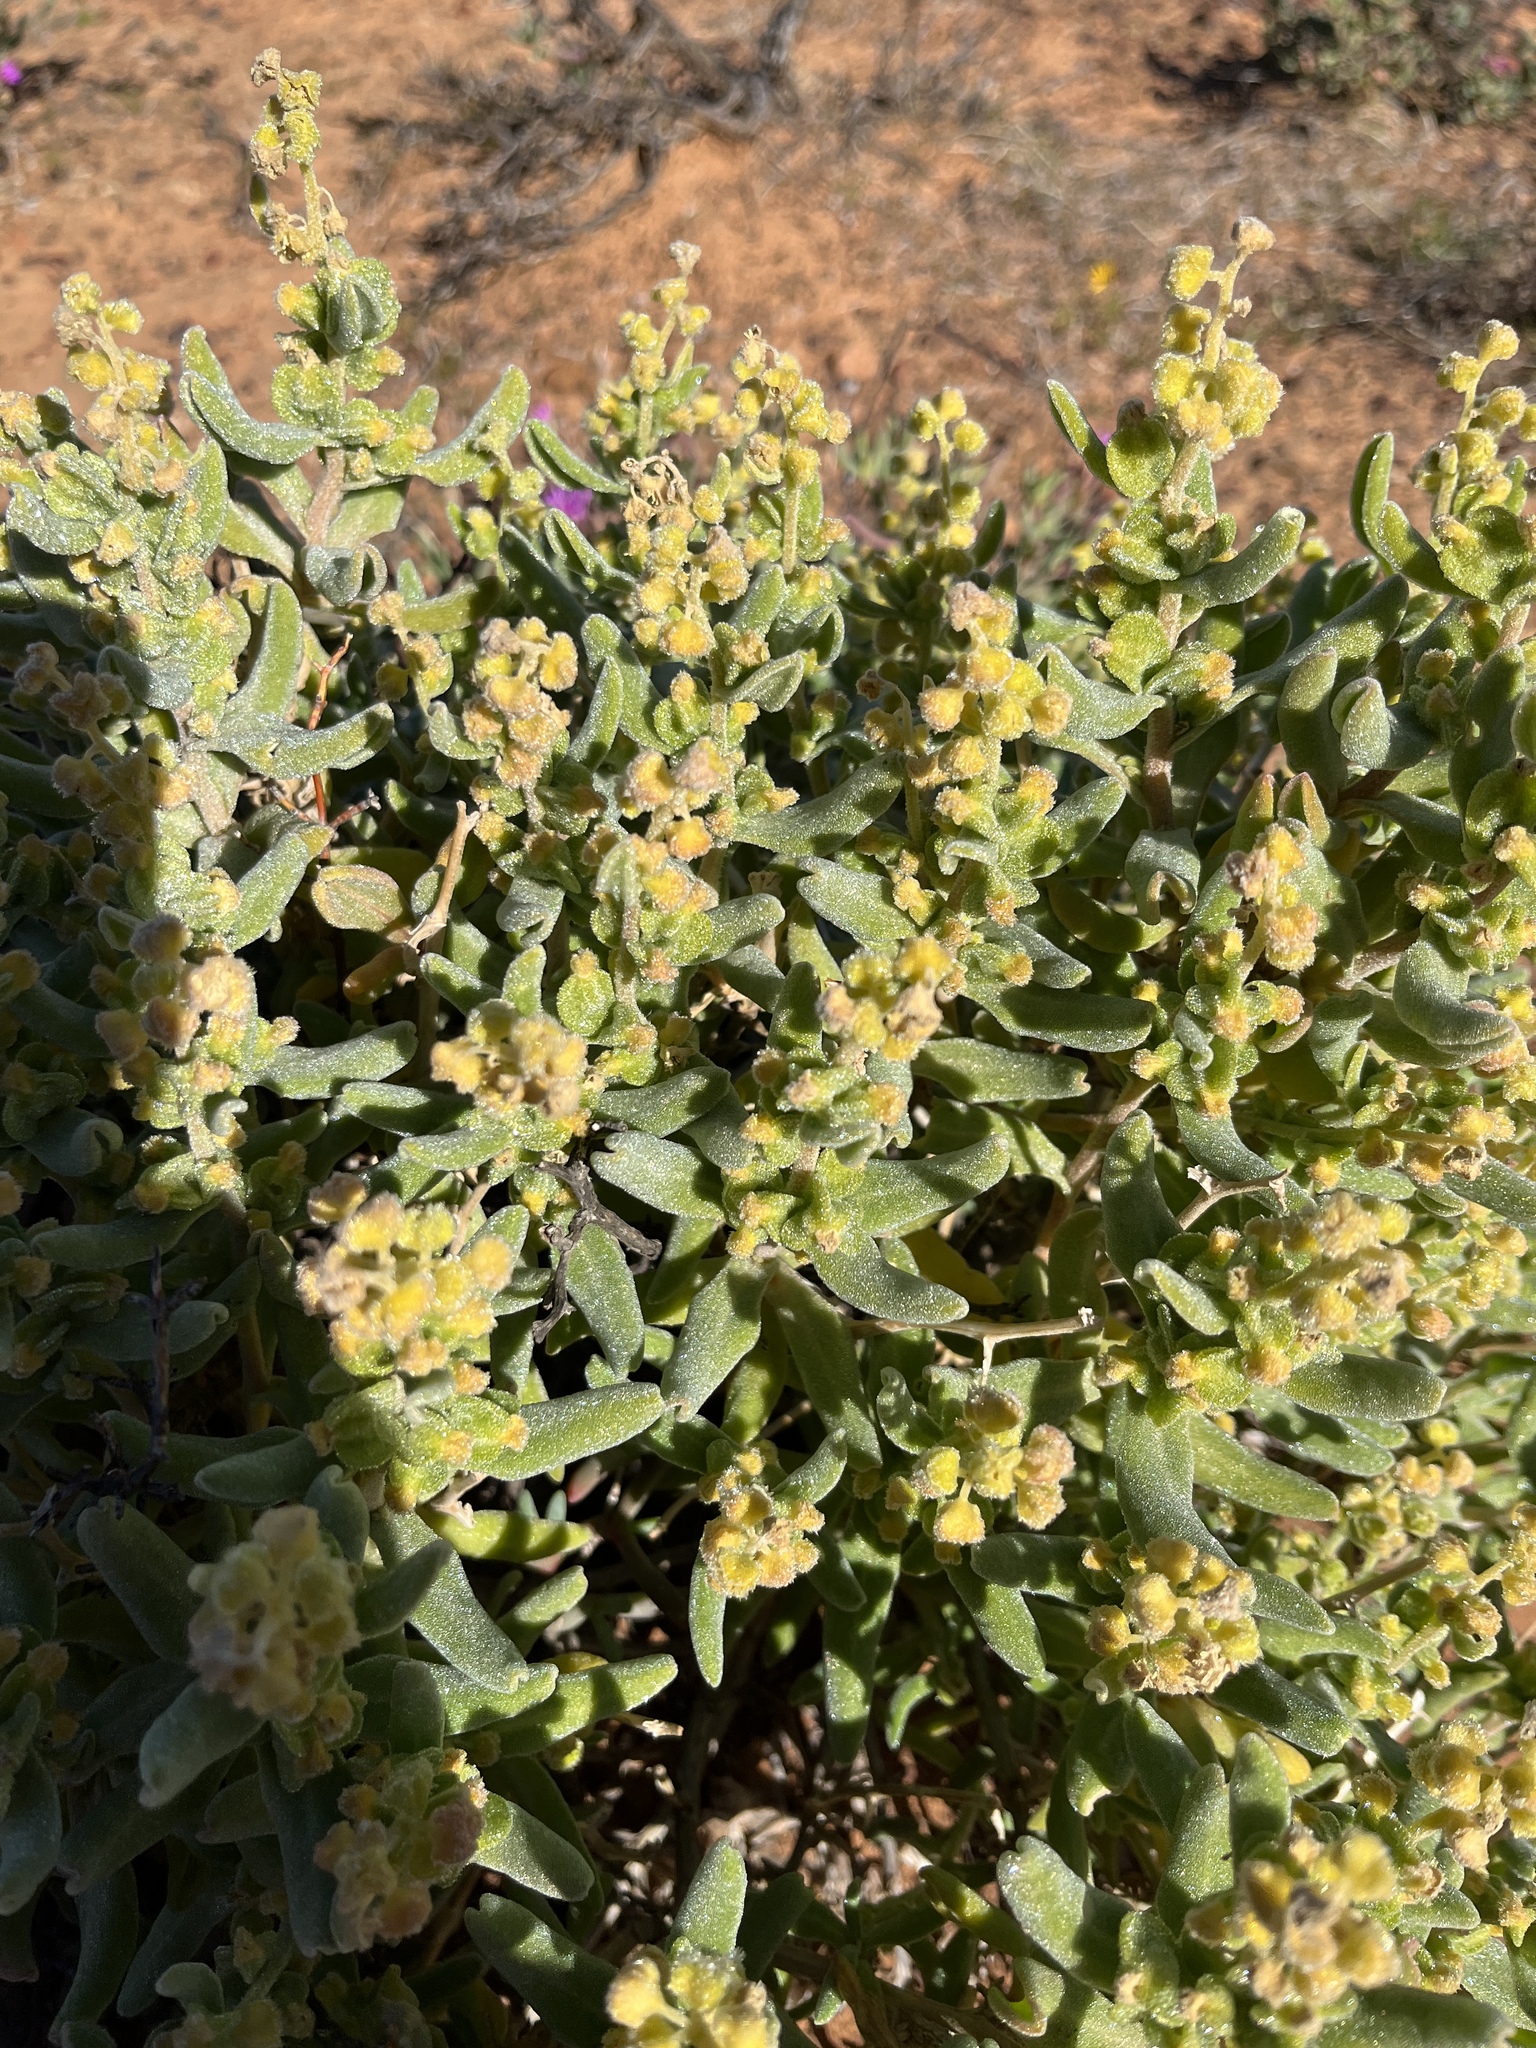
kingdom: Plantae
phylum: Tracheophyta
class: Magnoliopsida
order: Caryophyllales
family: Aizoaceae
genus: Tetragonia
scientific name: Tetragonia fruticosa
